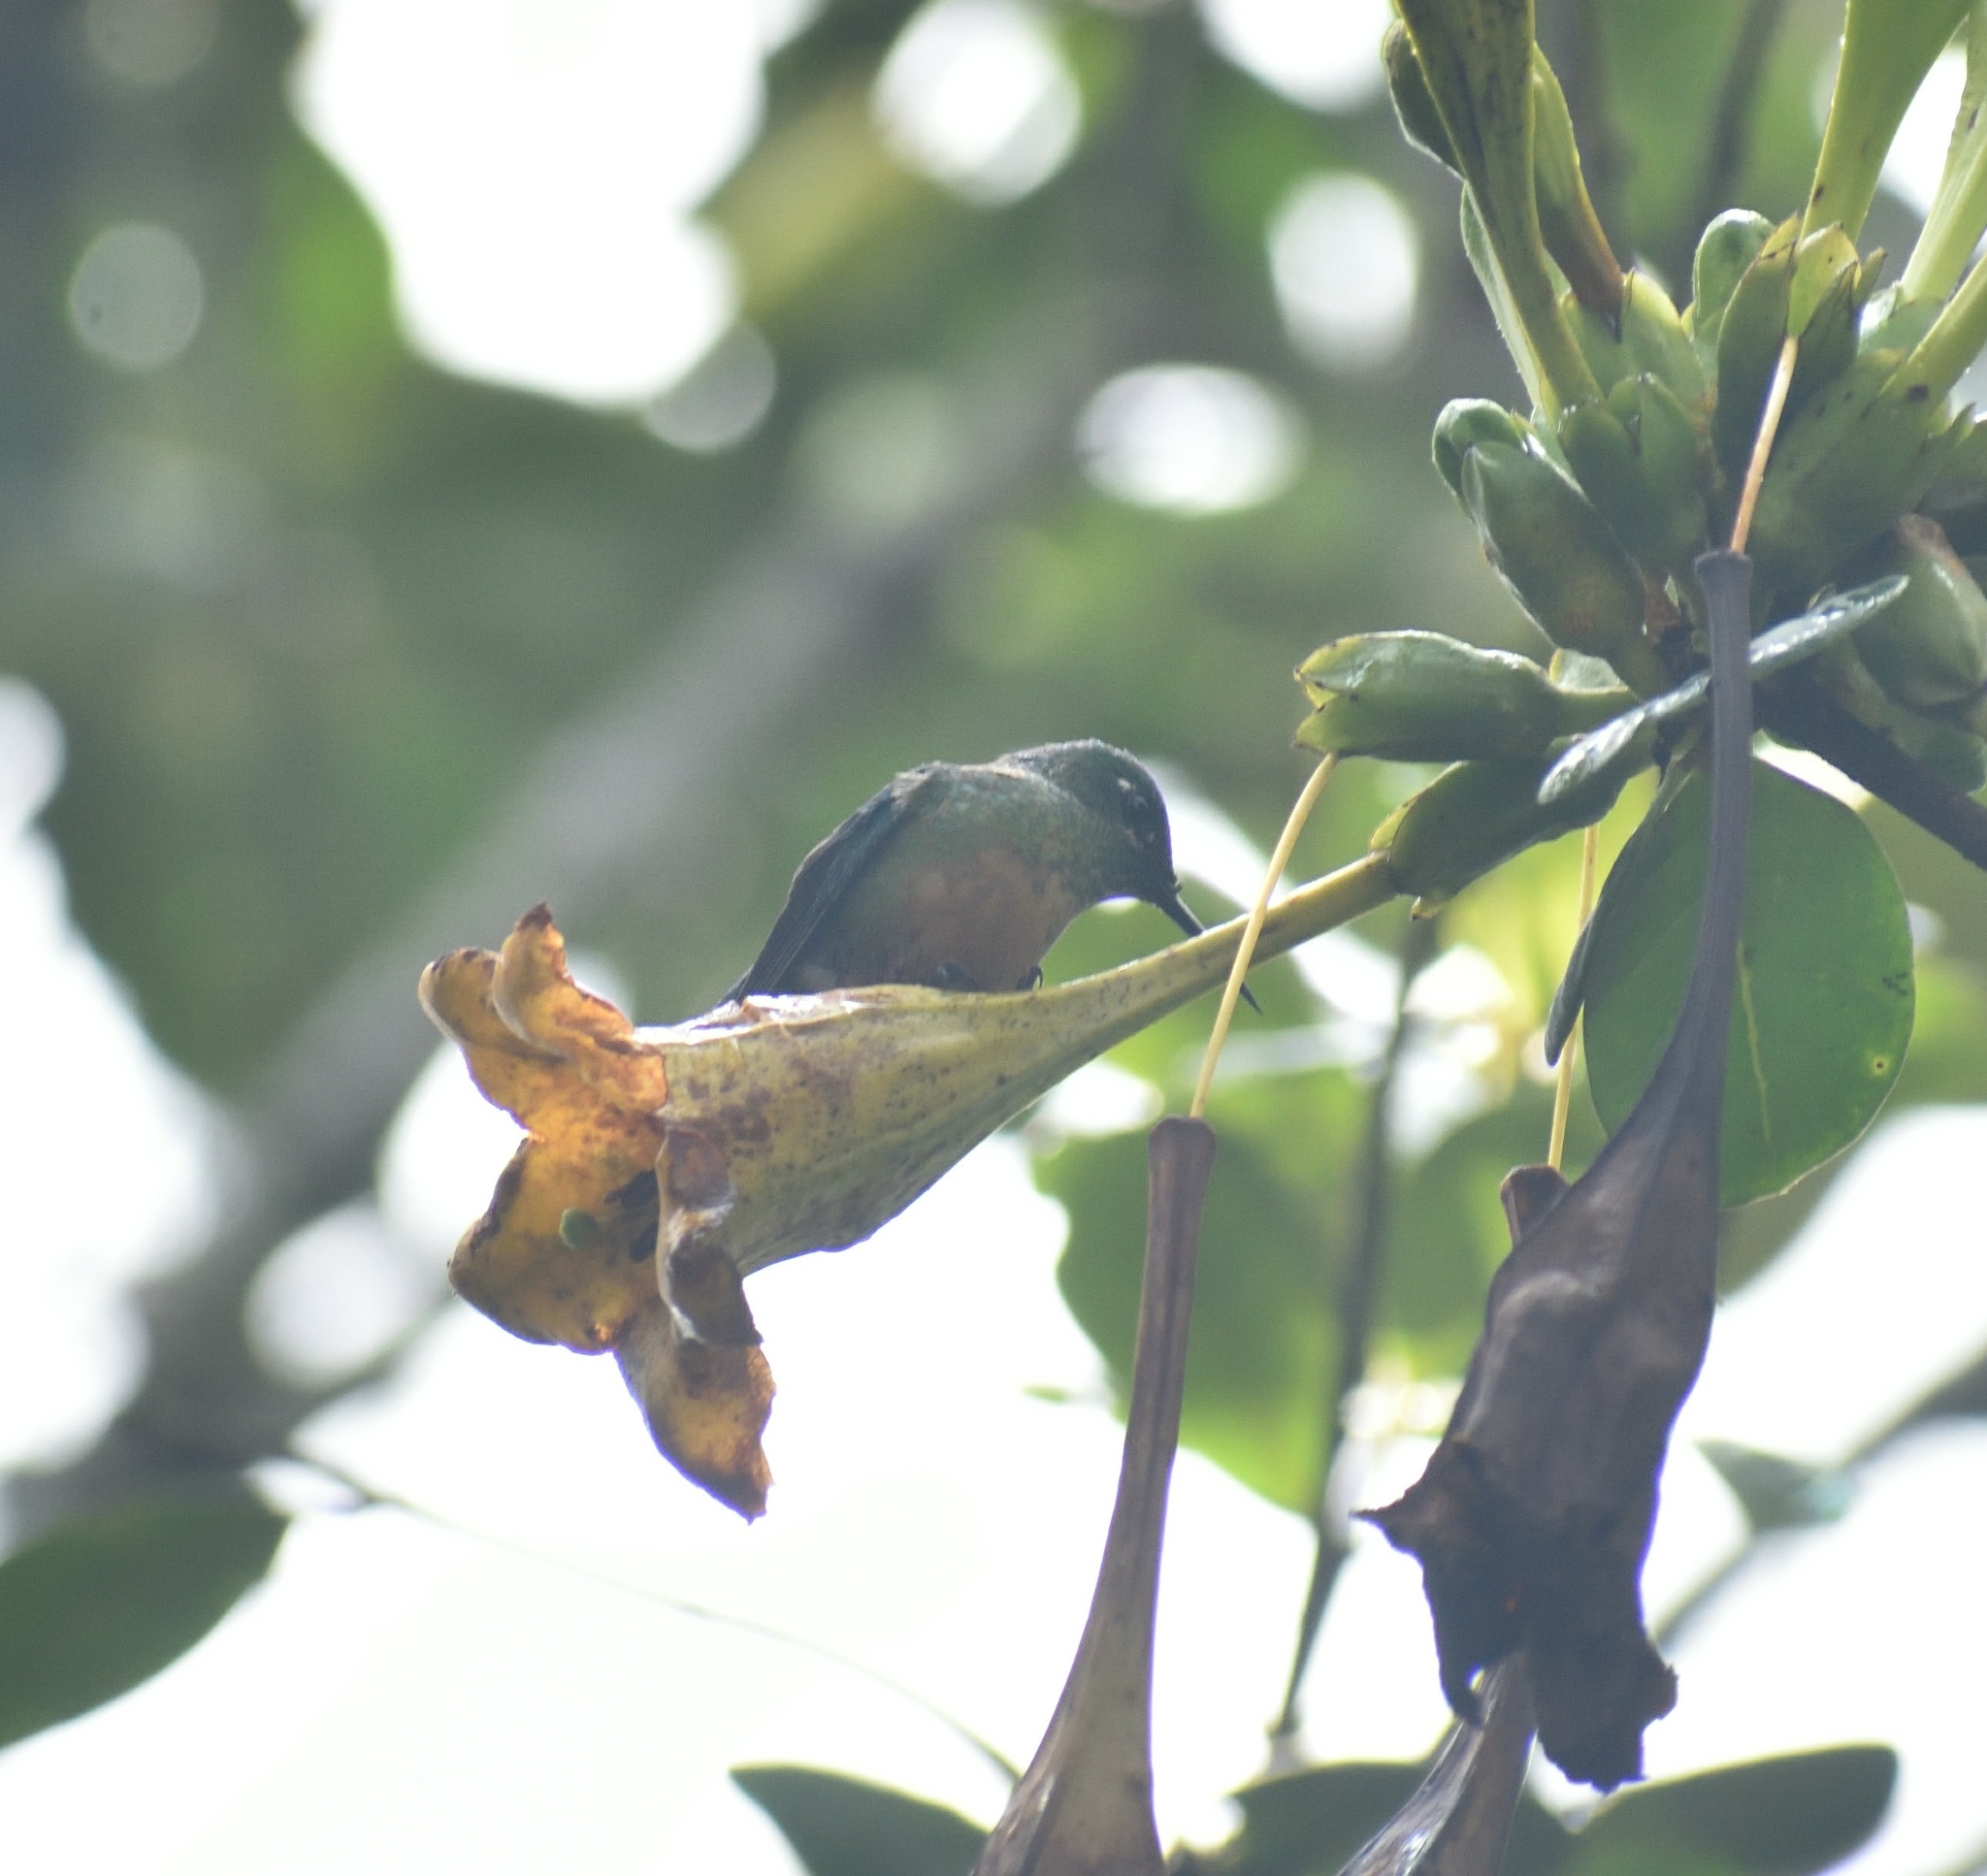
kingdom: Animalia
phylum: Chordata
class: Aves
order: Apodiformes
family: Trochilidae
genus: Aglaiocercus
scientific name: Aglaiocercus kingii
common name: Long-tailed sylph
